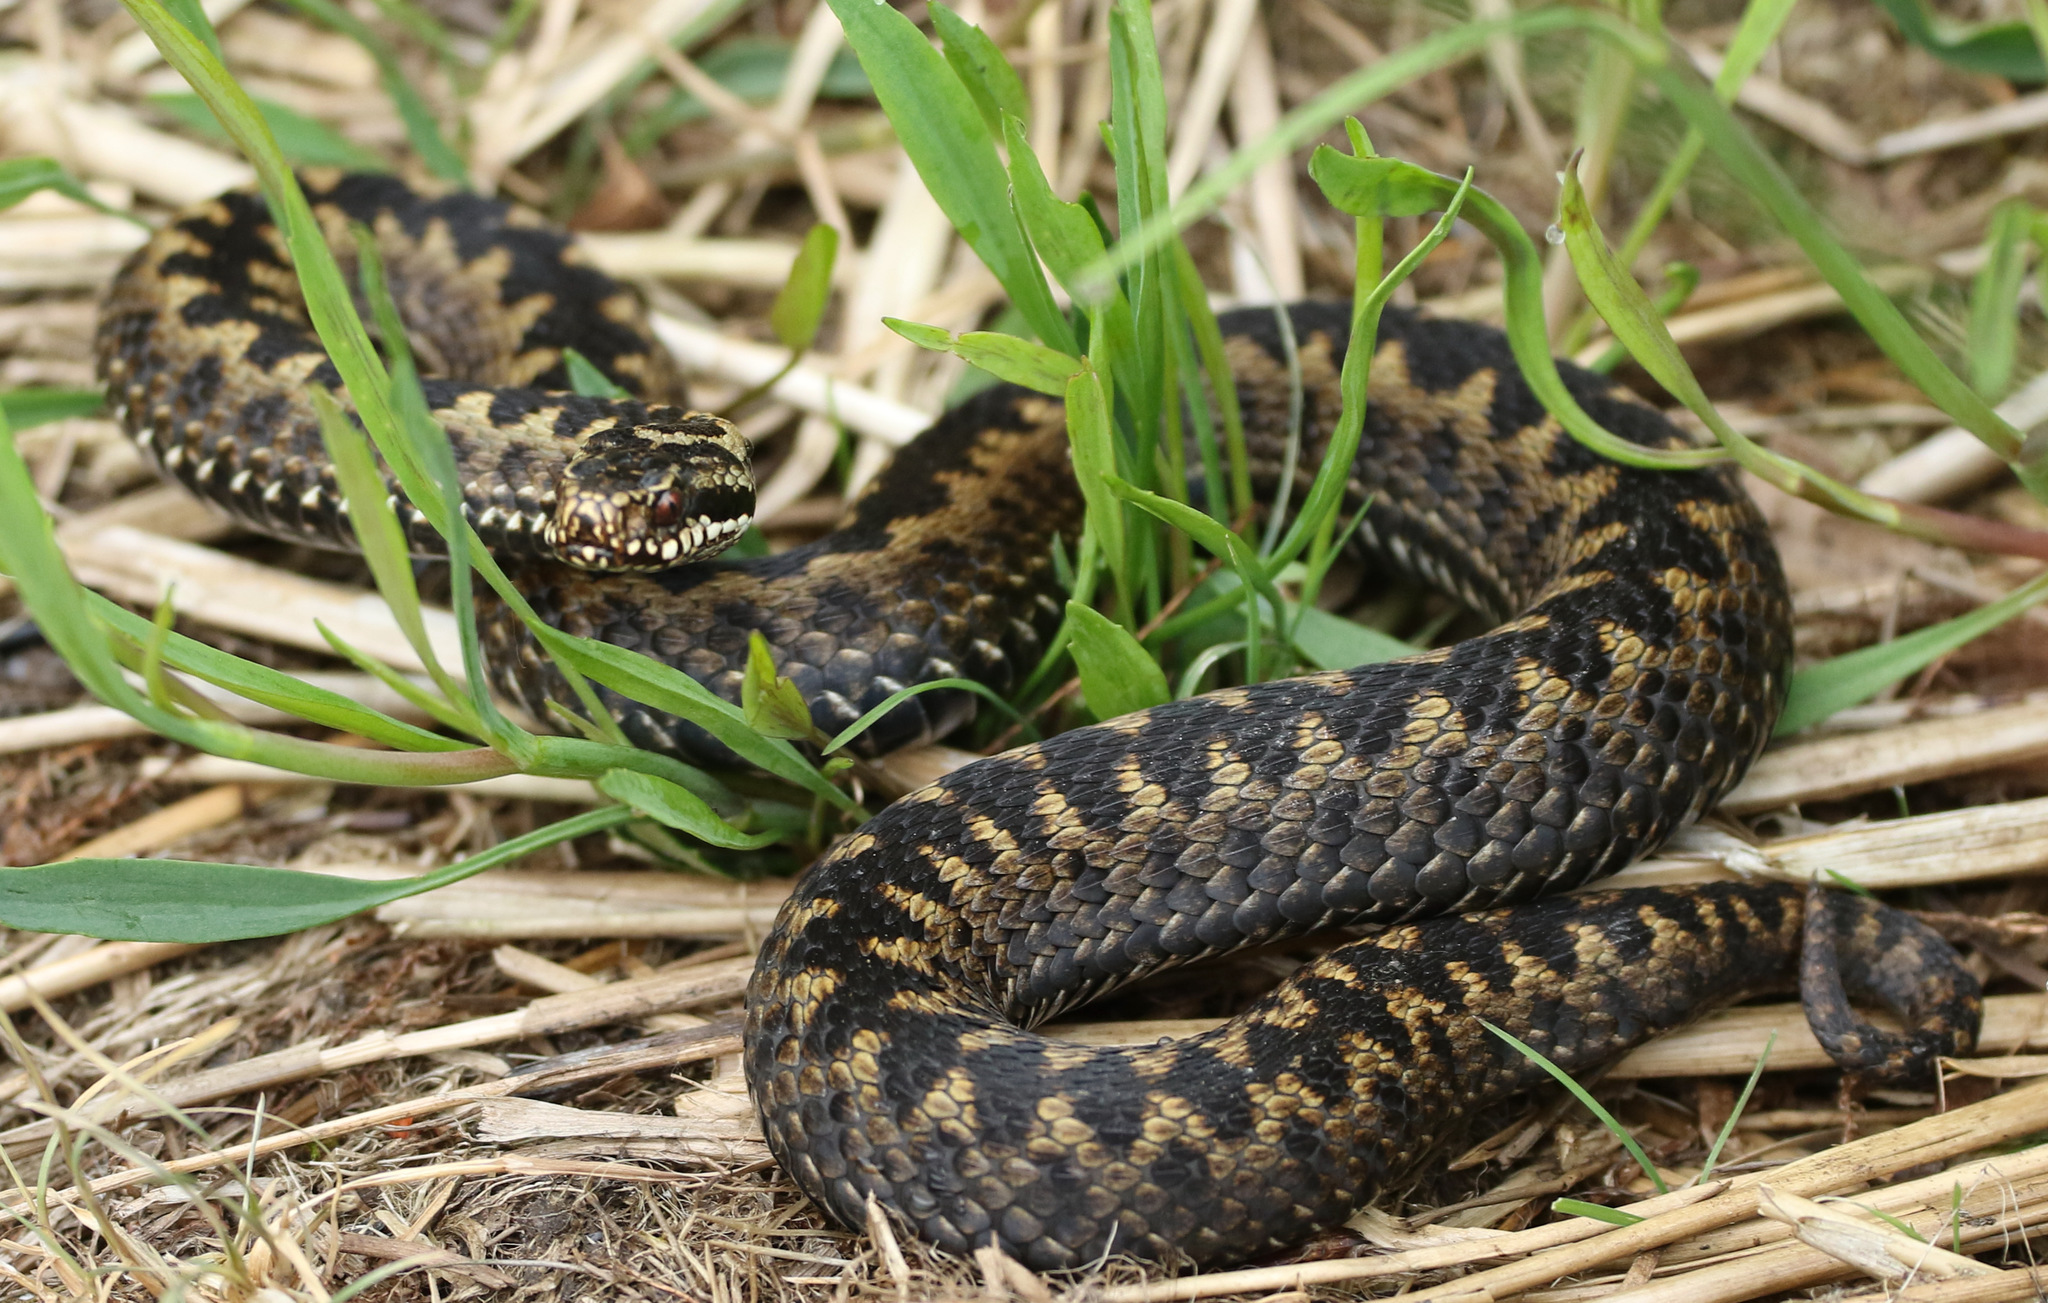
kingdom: Animalia
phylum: Chordata
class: Squamata
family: Viperidae
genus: Vipera
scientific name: Vipera berus
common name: Adder
